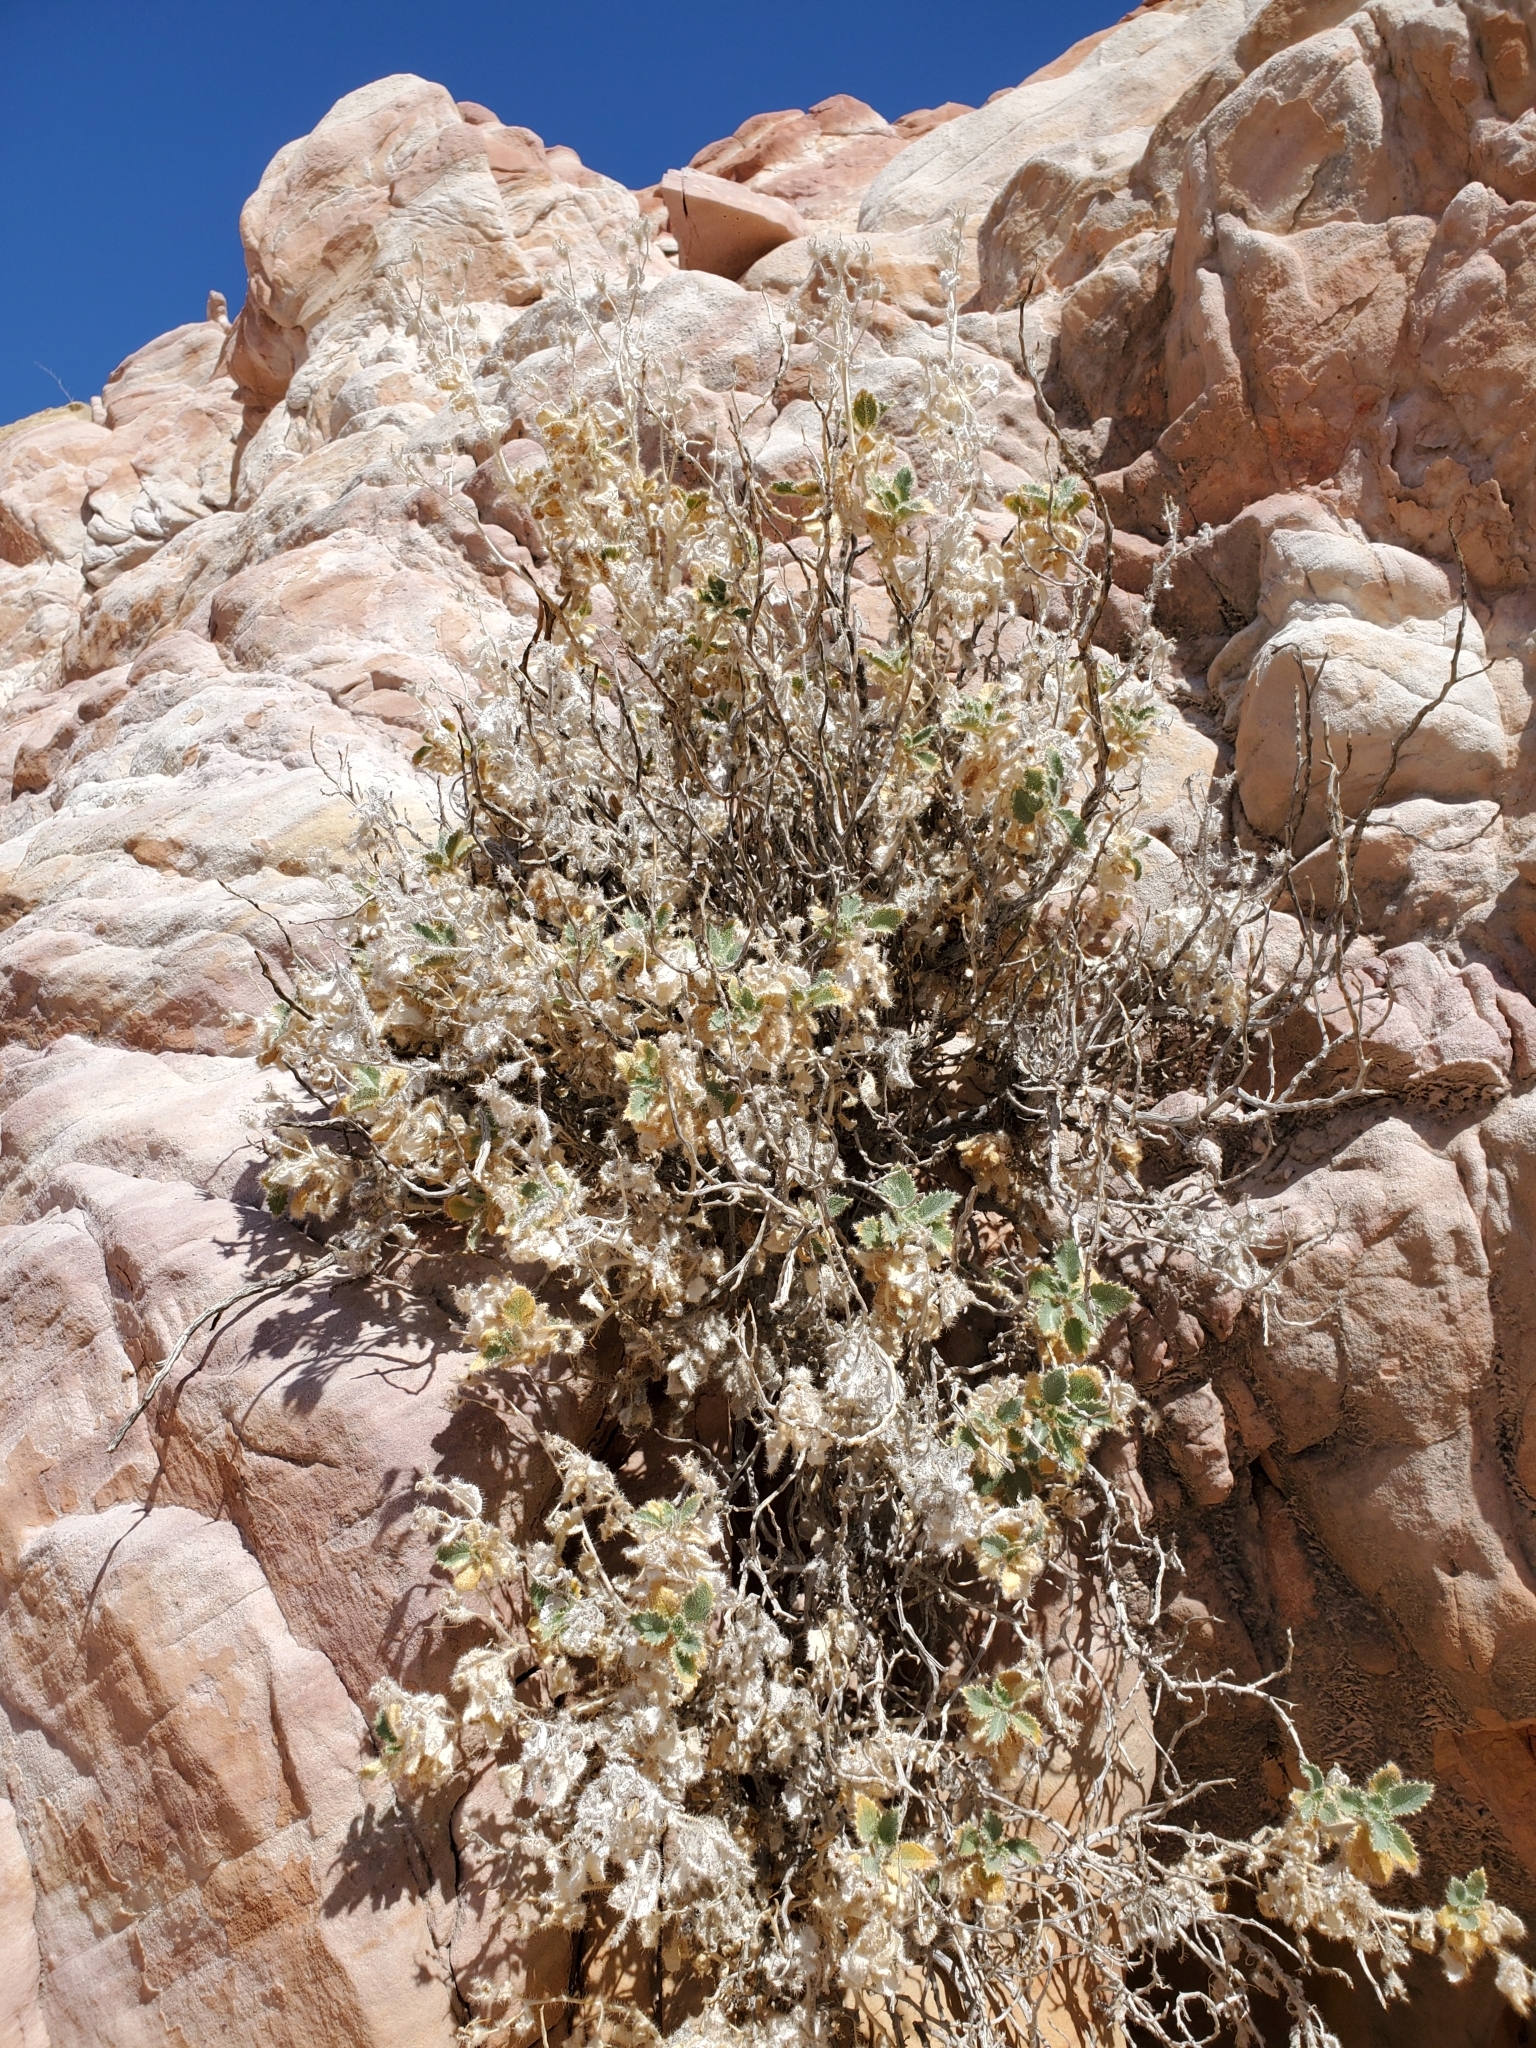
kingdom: Plantae
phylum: Tracheophyta
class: Magnoliopsida
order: Cornales
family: Loasaceae
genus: Eucnide
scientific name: Eucnide urens
